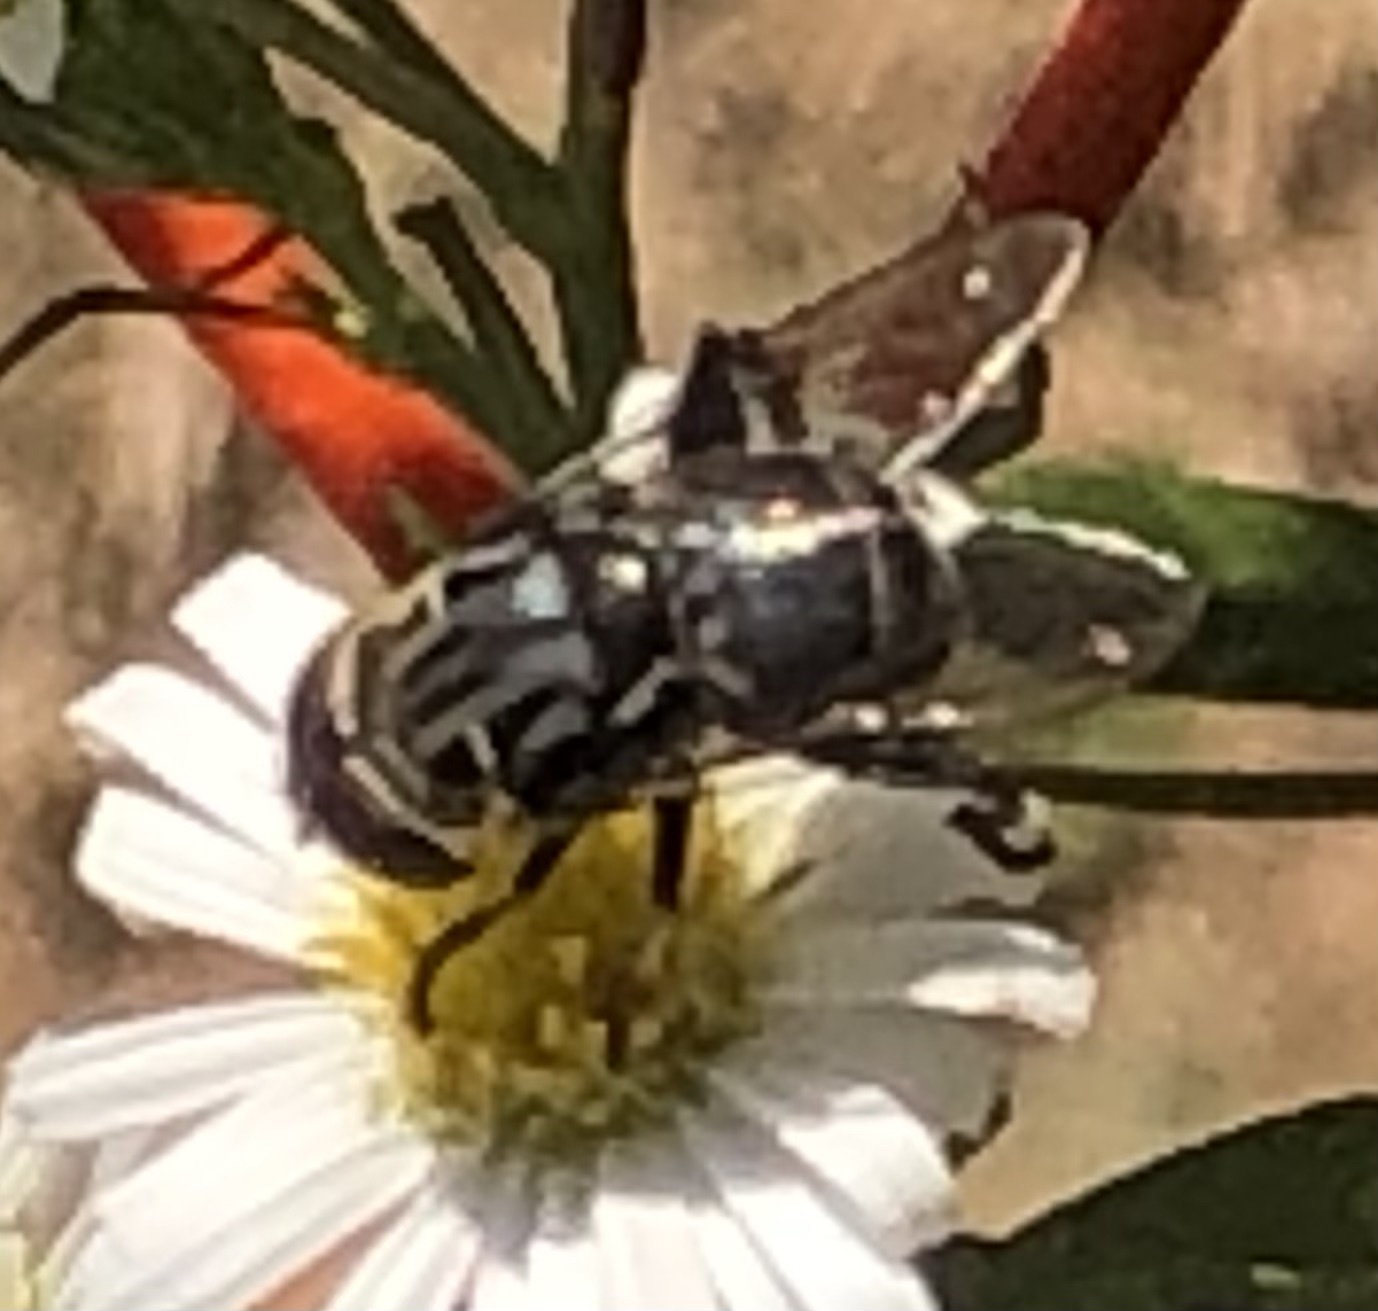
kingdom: Animalia
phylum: Arthropoda
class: Insecta
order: Diptera
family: Syrphidae
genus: Palpada
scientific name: Palpada furcata
